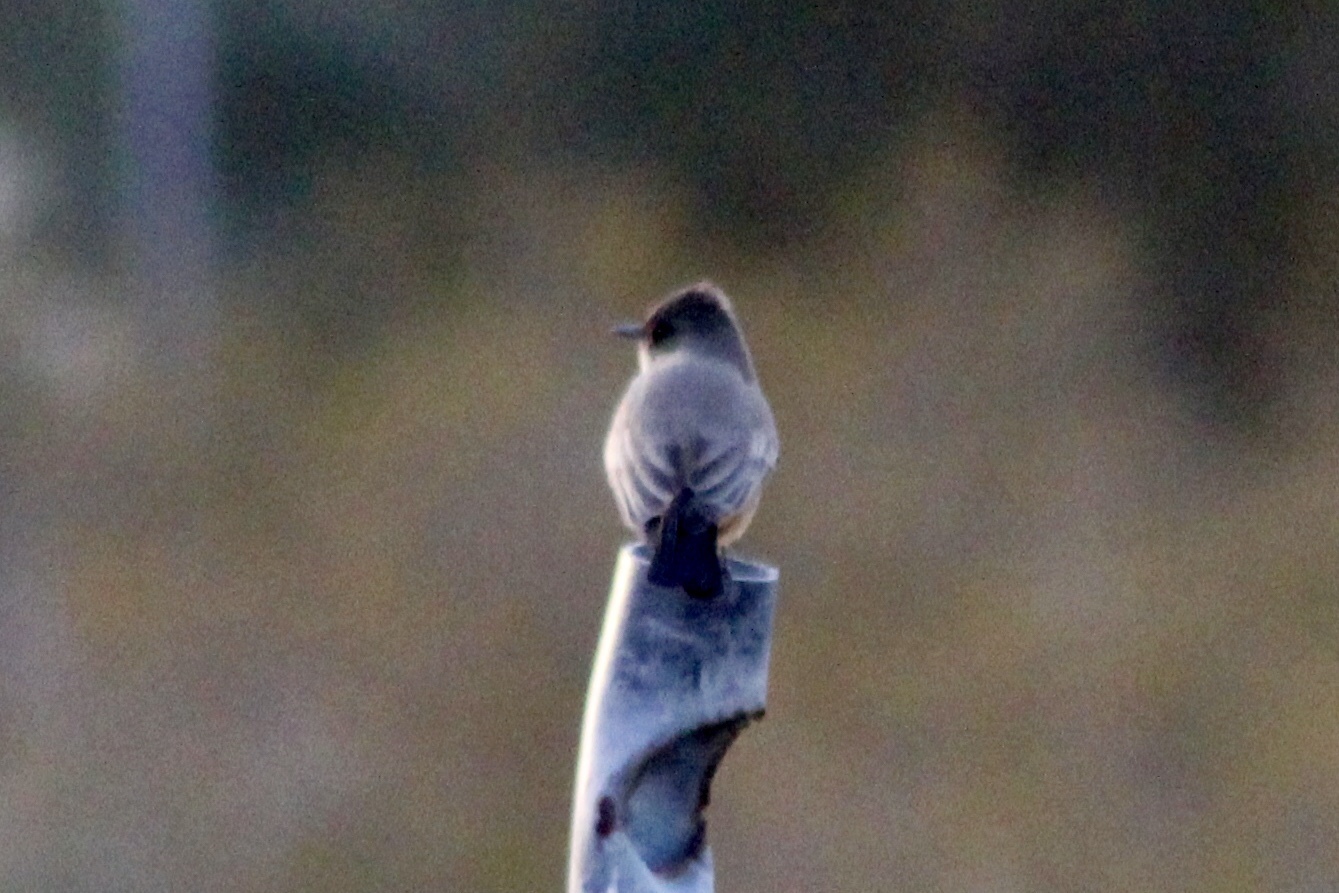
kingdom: Animalia
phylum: Chordata
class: Aves
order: Passeriformes
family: Tyrannidae
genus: Sayornis
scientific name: Sayornis saya
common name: Say's phoebe
